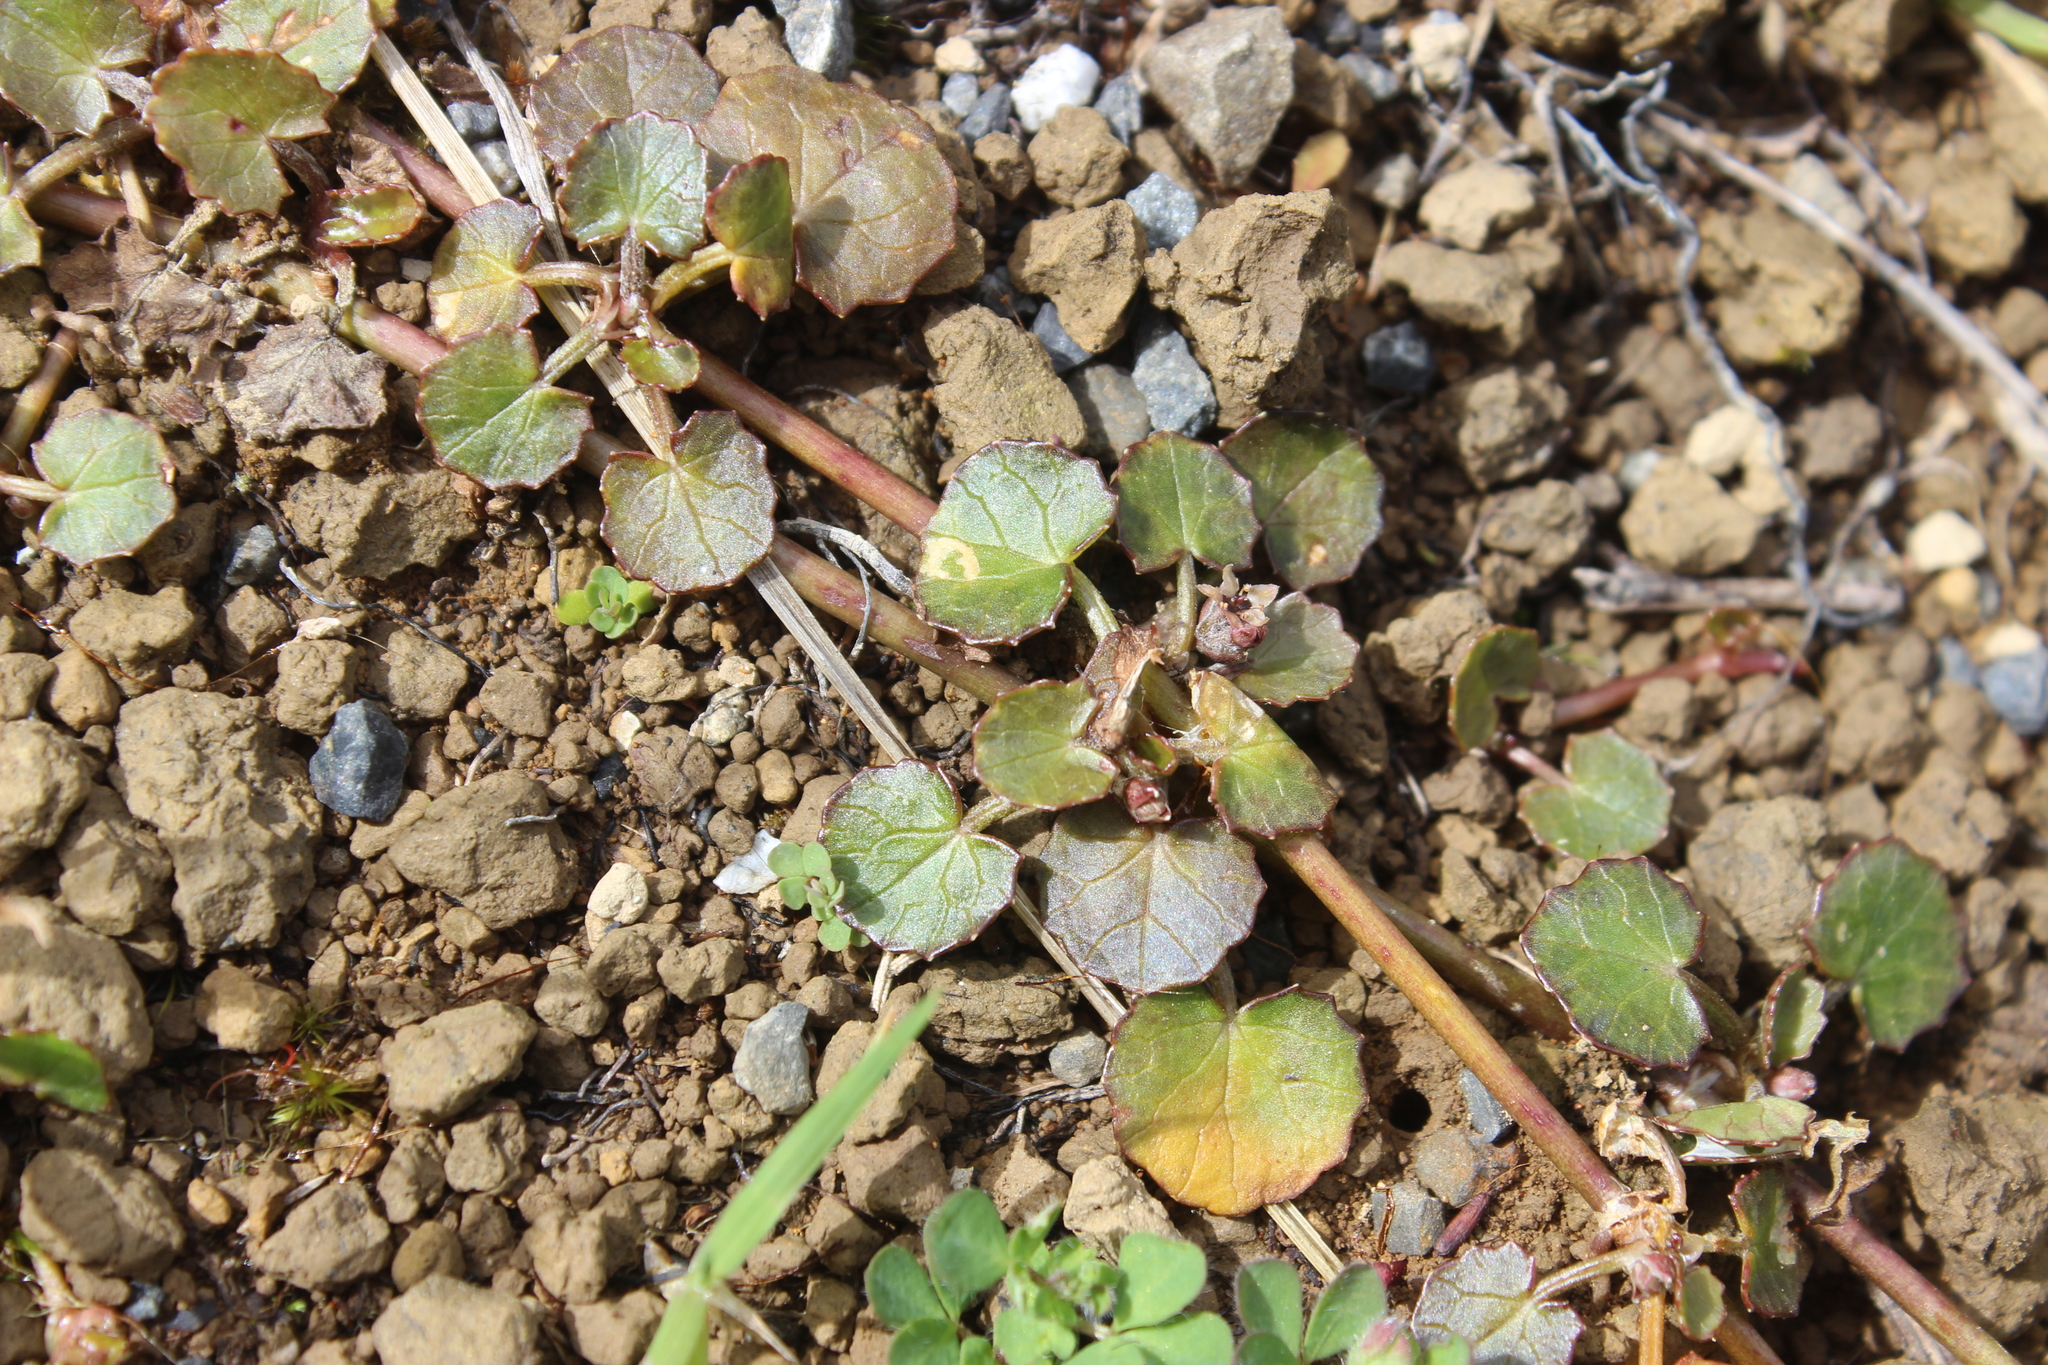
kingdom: Plantae
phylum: Tracheophyta
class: Magnoliopsida
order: Apiales
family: Apiaceae
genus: Centella
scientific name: Centella uniflora
